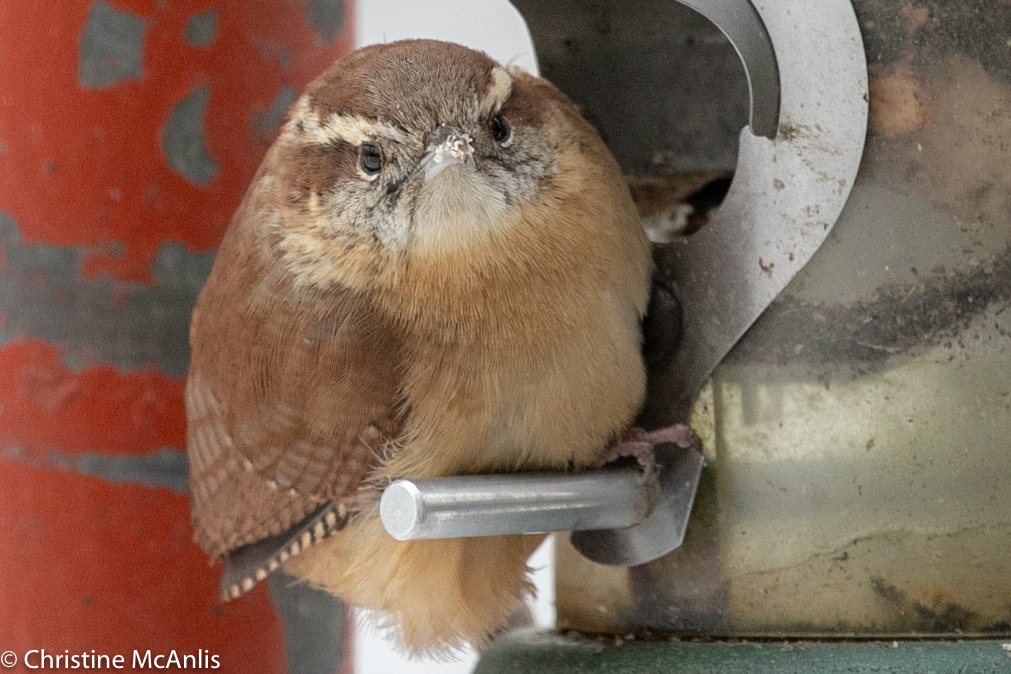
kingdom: Animalia
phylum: Chordata
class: Aves
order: Passeriformes
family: Troglodytidae
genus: Thryothorus
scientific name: Thryothorus ludovicianus
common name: Carolina wren
